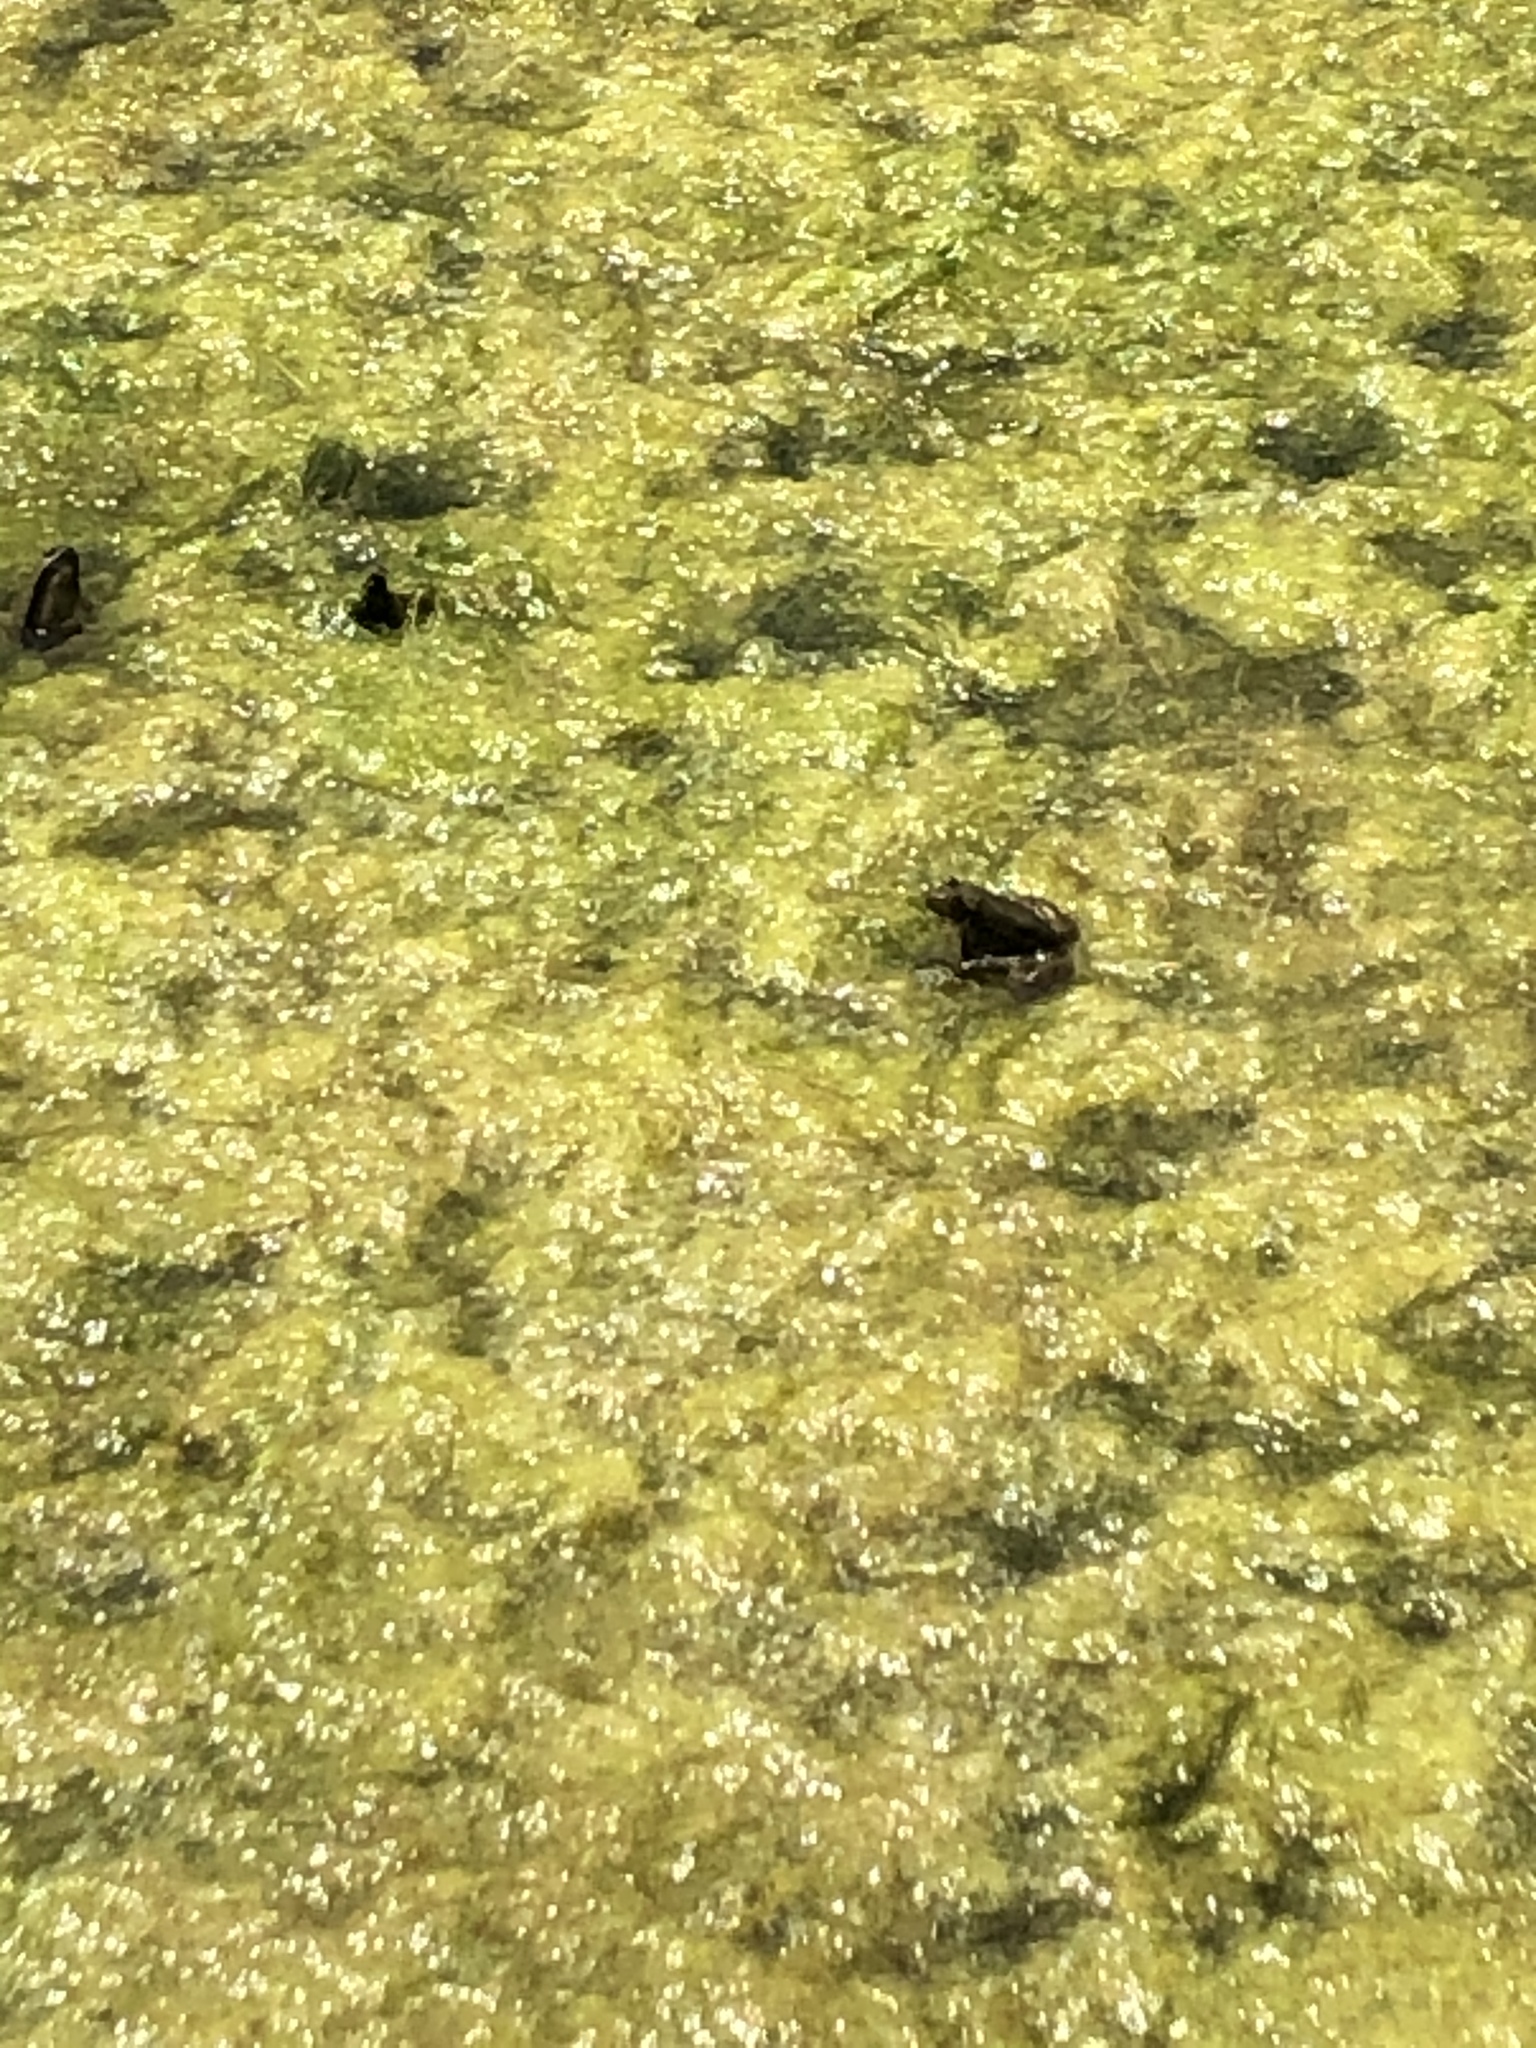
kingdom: Animalia
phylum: Chordata
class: Amphibia
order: Anura
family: Ranidae
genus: Lithobates
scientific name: Lithobates catesbeianus
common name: American bullfrog
